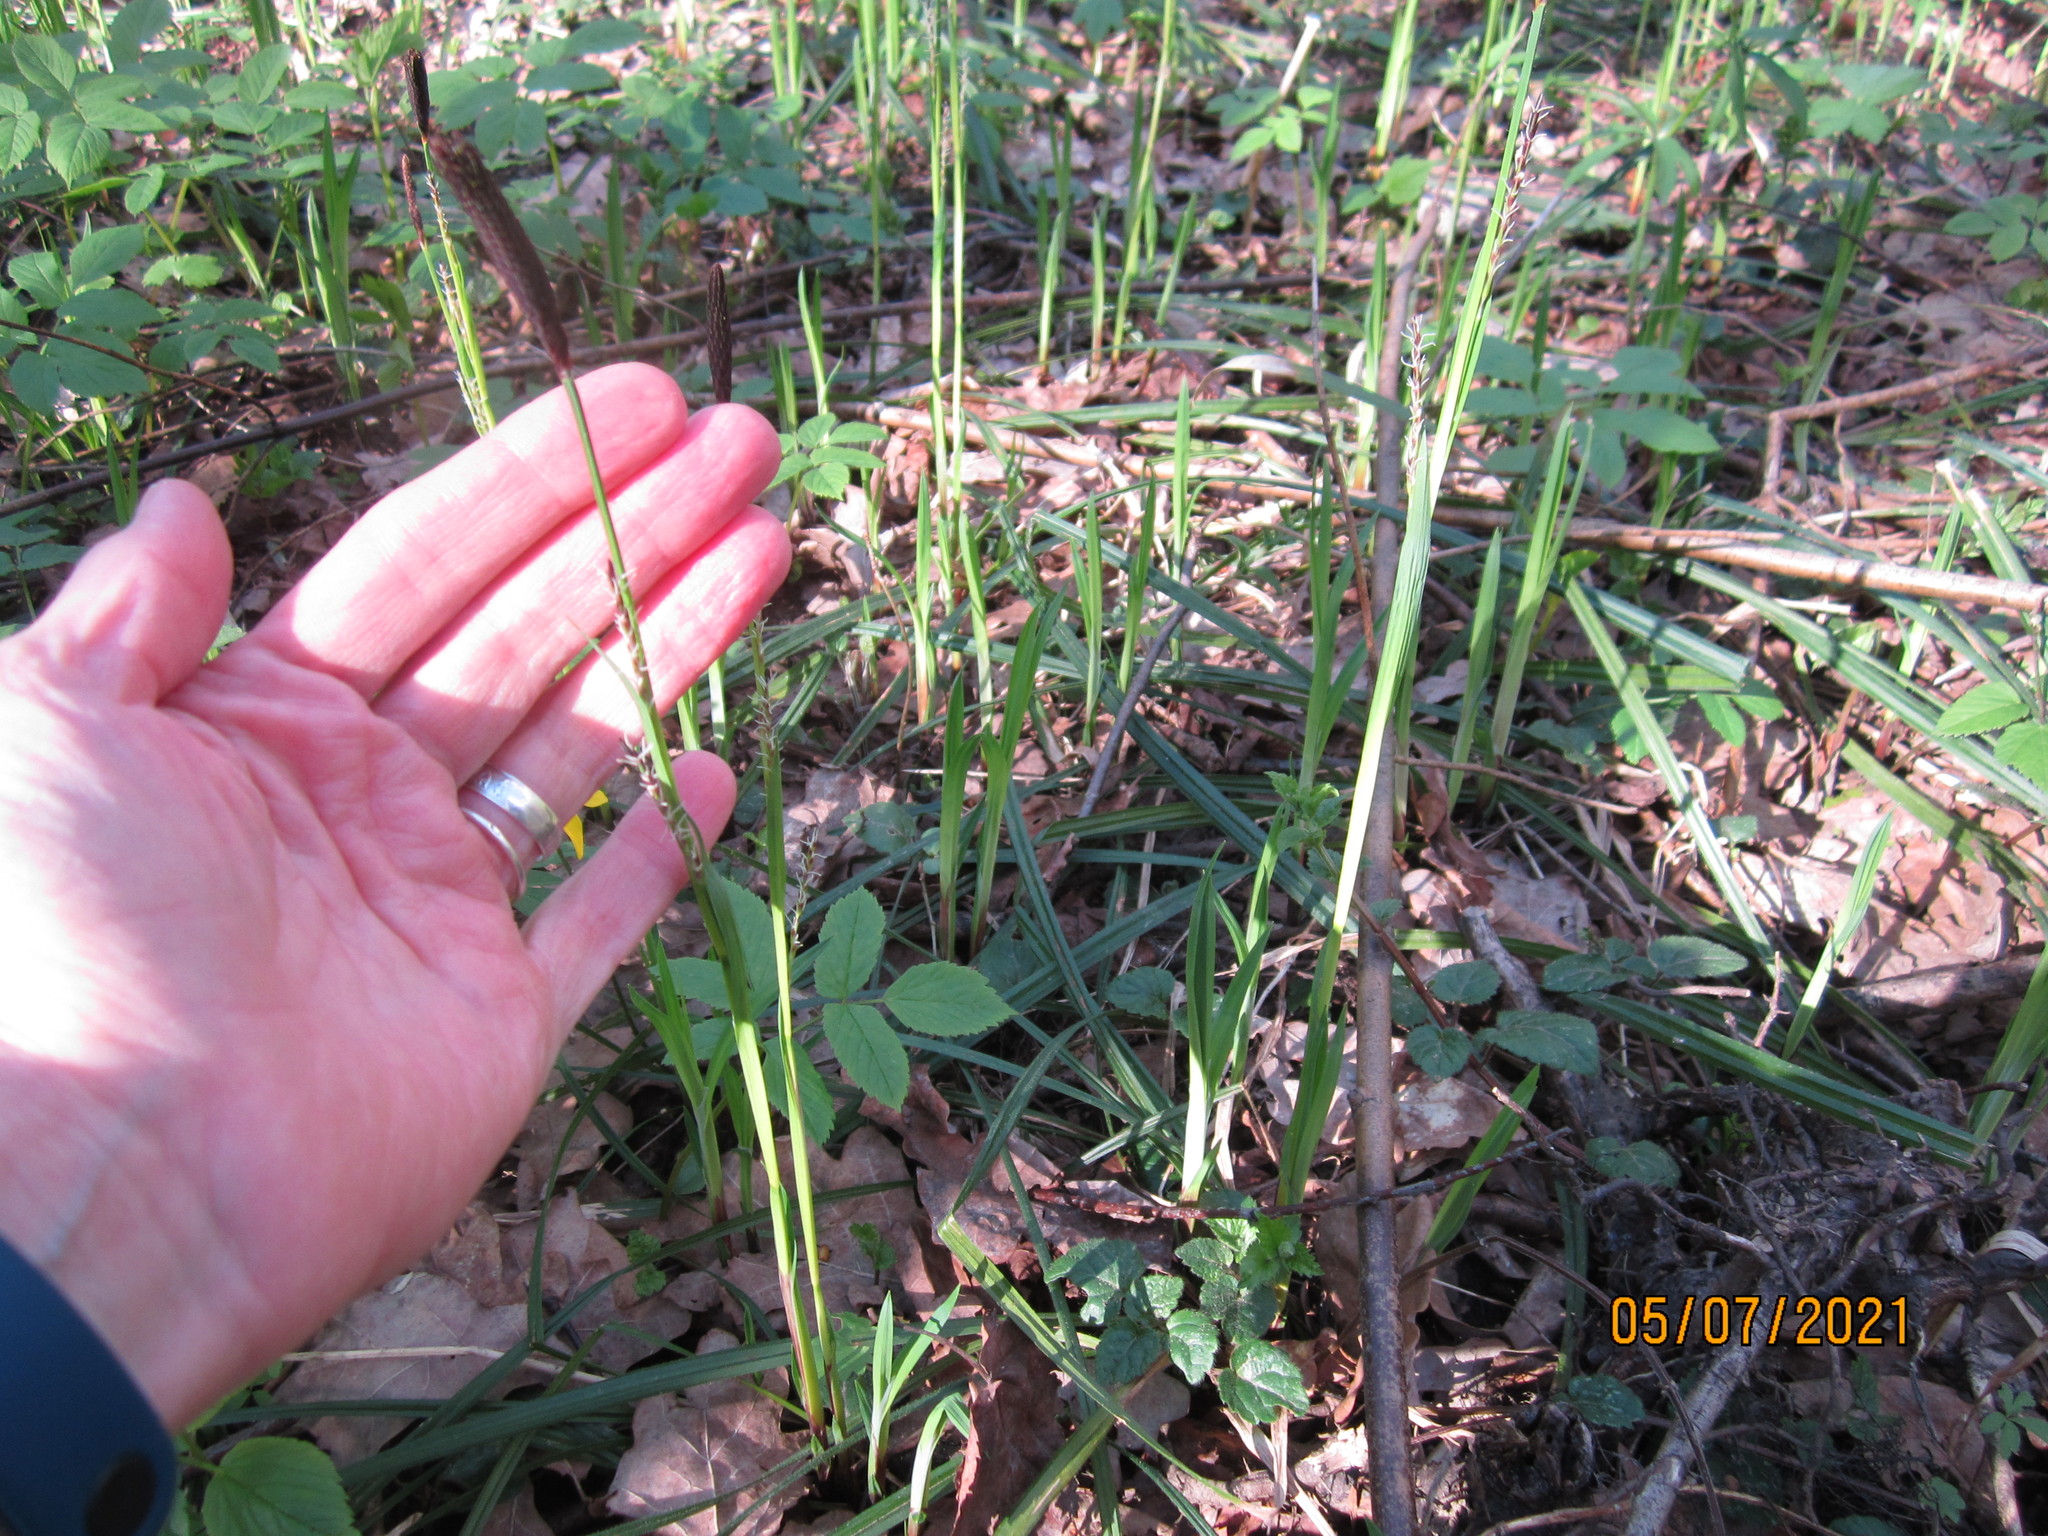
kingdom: Plantae
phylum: Tracheophyta
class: Liliopsida
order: Poales
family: Cyperaceae
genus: Carex
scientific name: Carex pilosa
